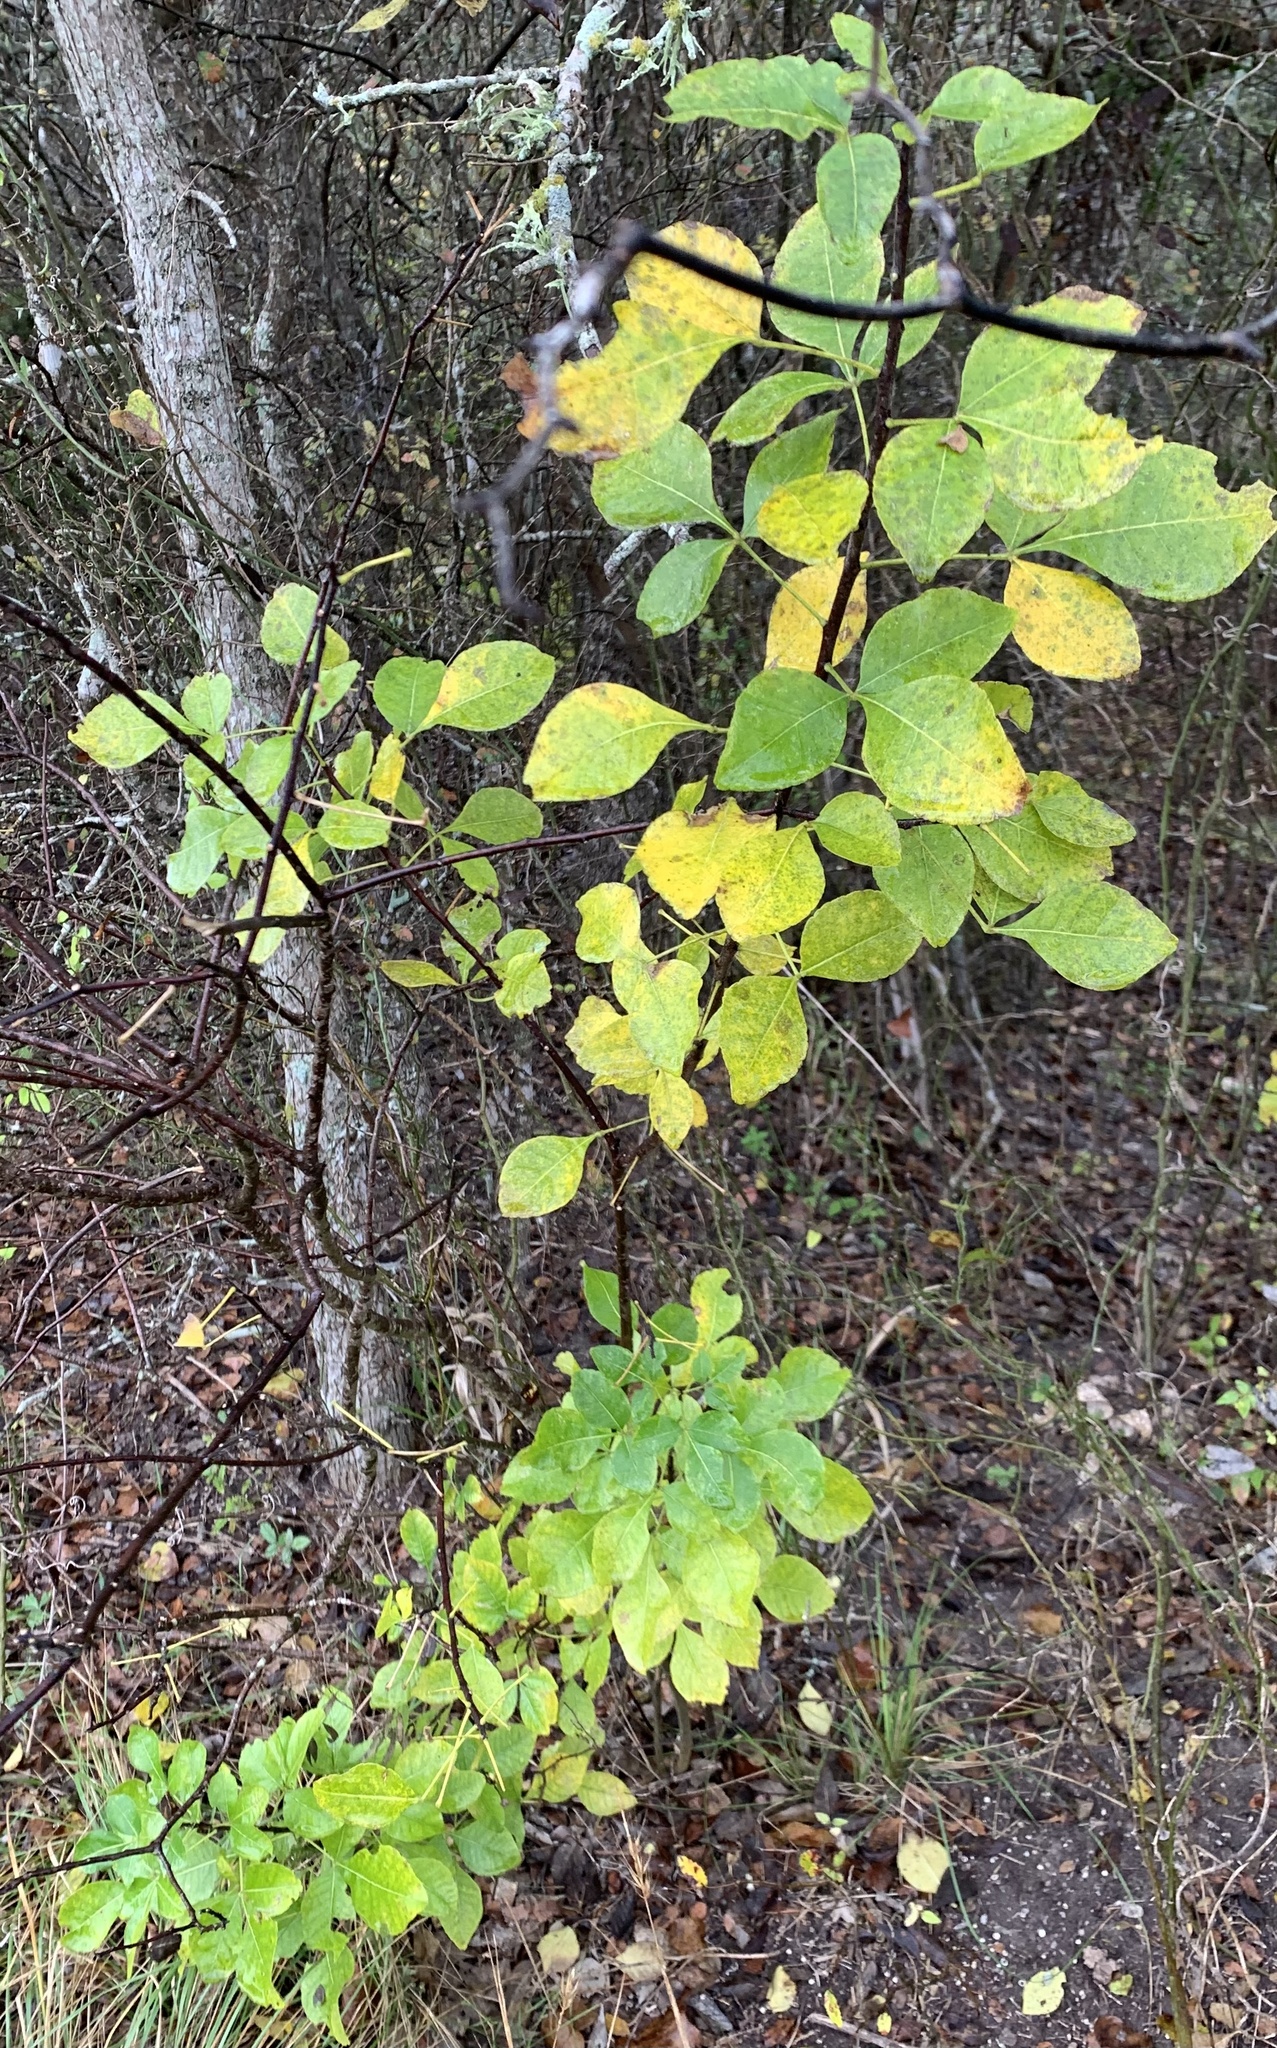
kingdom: Plantae
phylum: Tracheophyta
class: Magnoliopsida
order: Sapindales
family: Rutaceae
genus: Ptelea
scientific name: Ptelea trifoliata
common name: Common hop-tree
